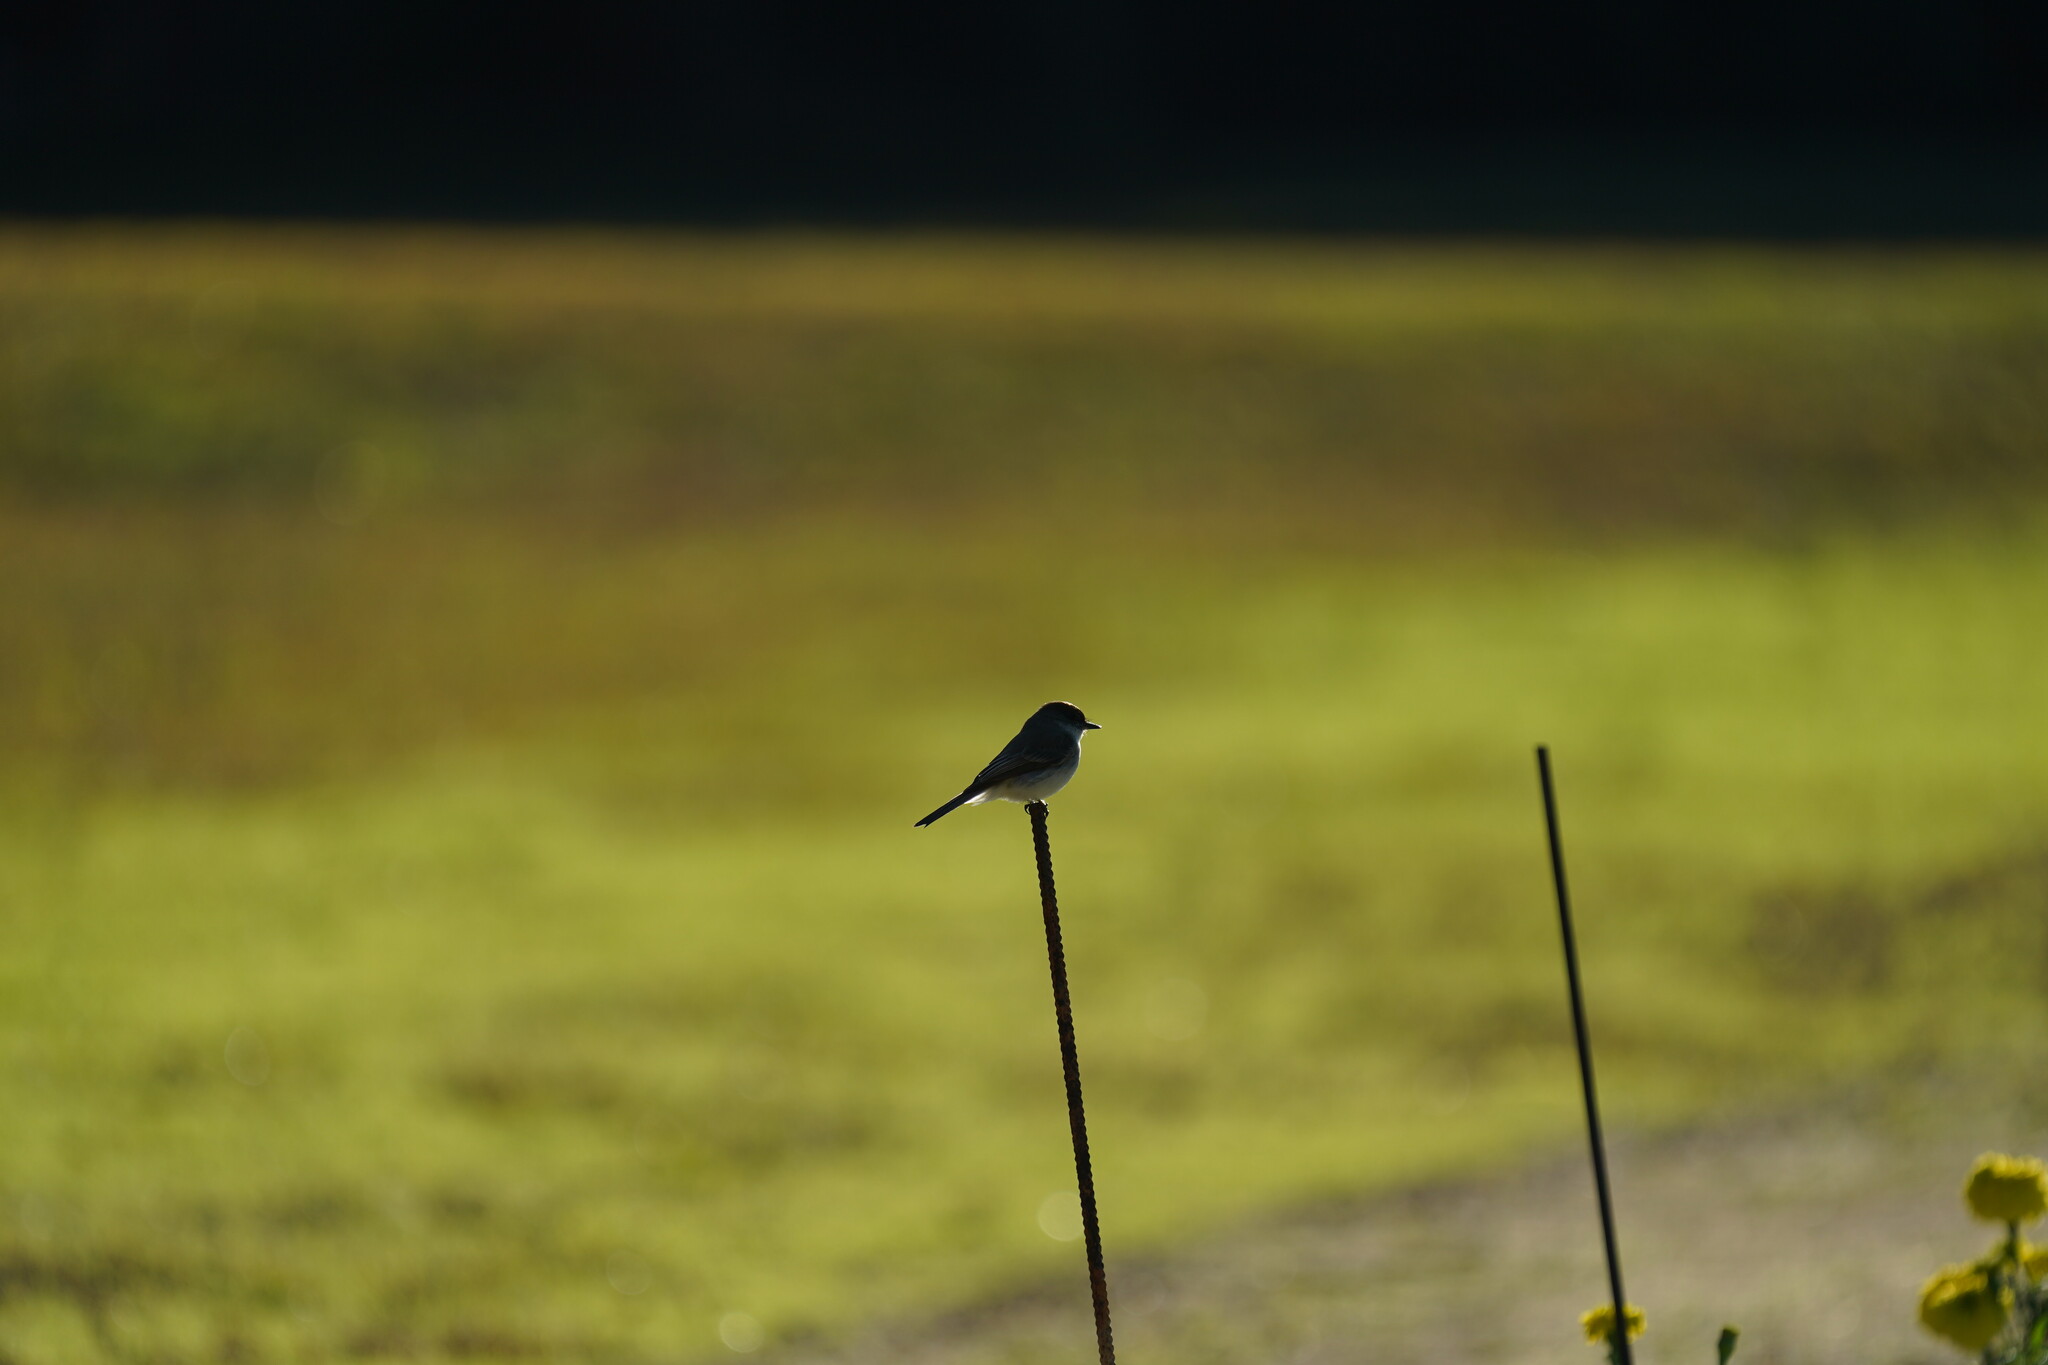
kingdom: Animalia
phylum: Chordata
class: Aves
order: Passeriformes
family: Tyrannidae
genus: Sayornis
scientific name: Sayornis phoebe
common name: Eastern phoebe
